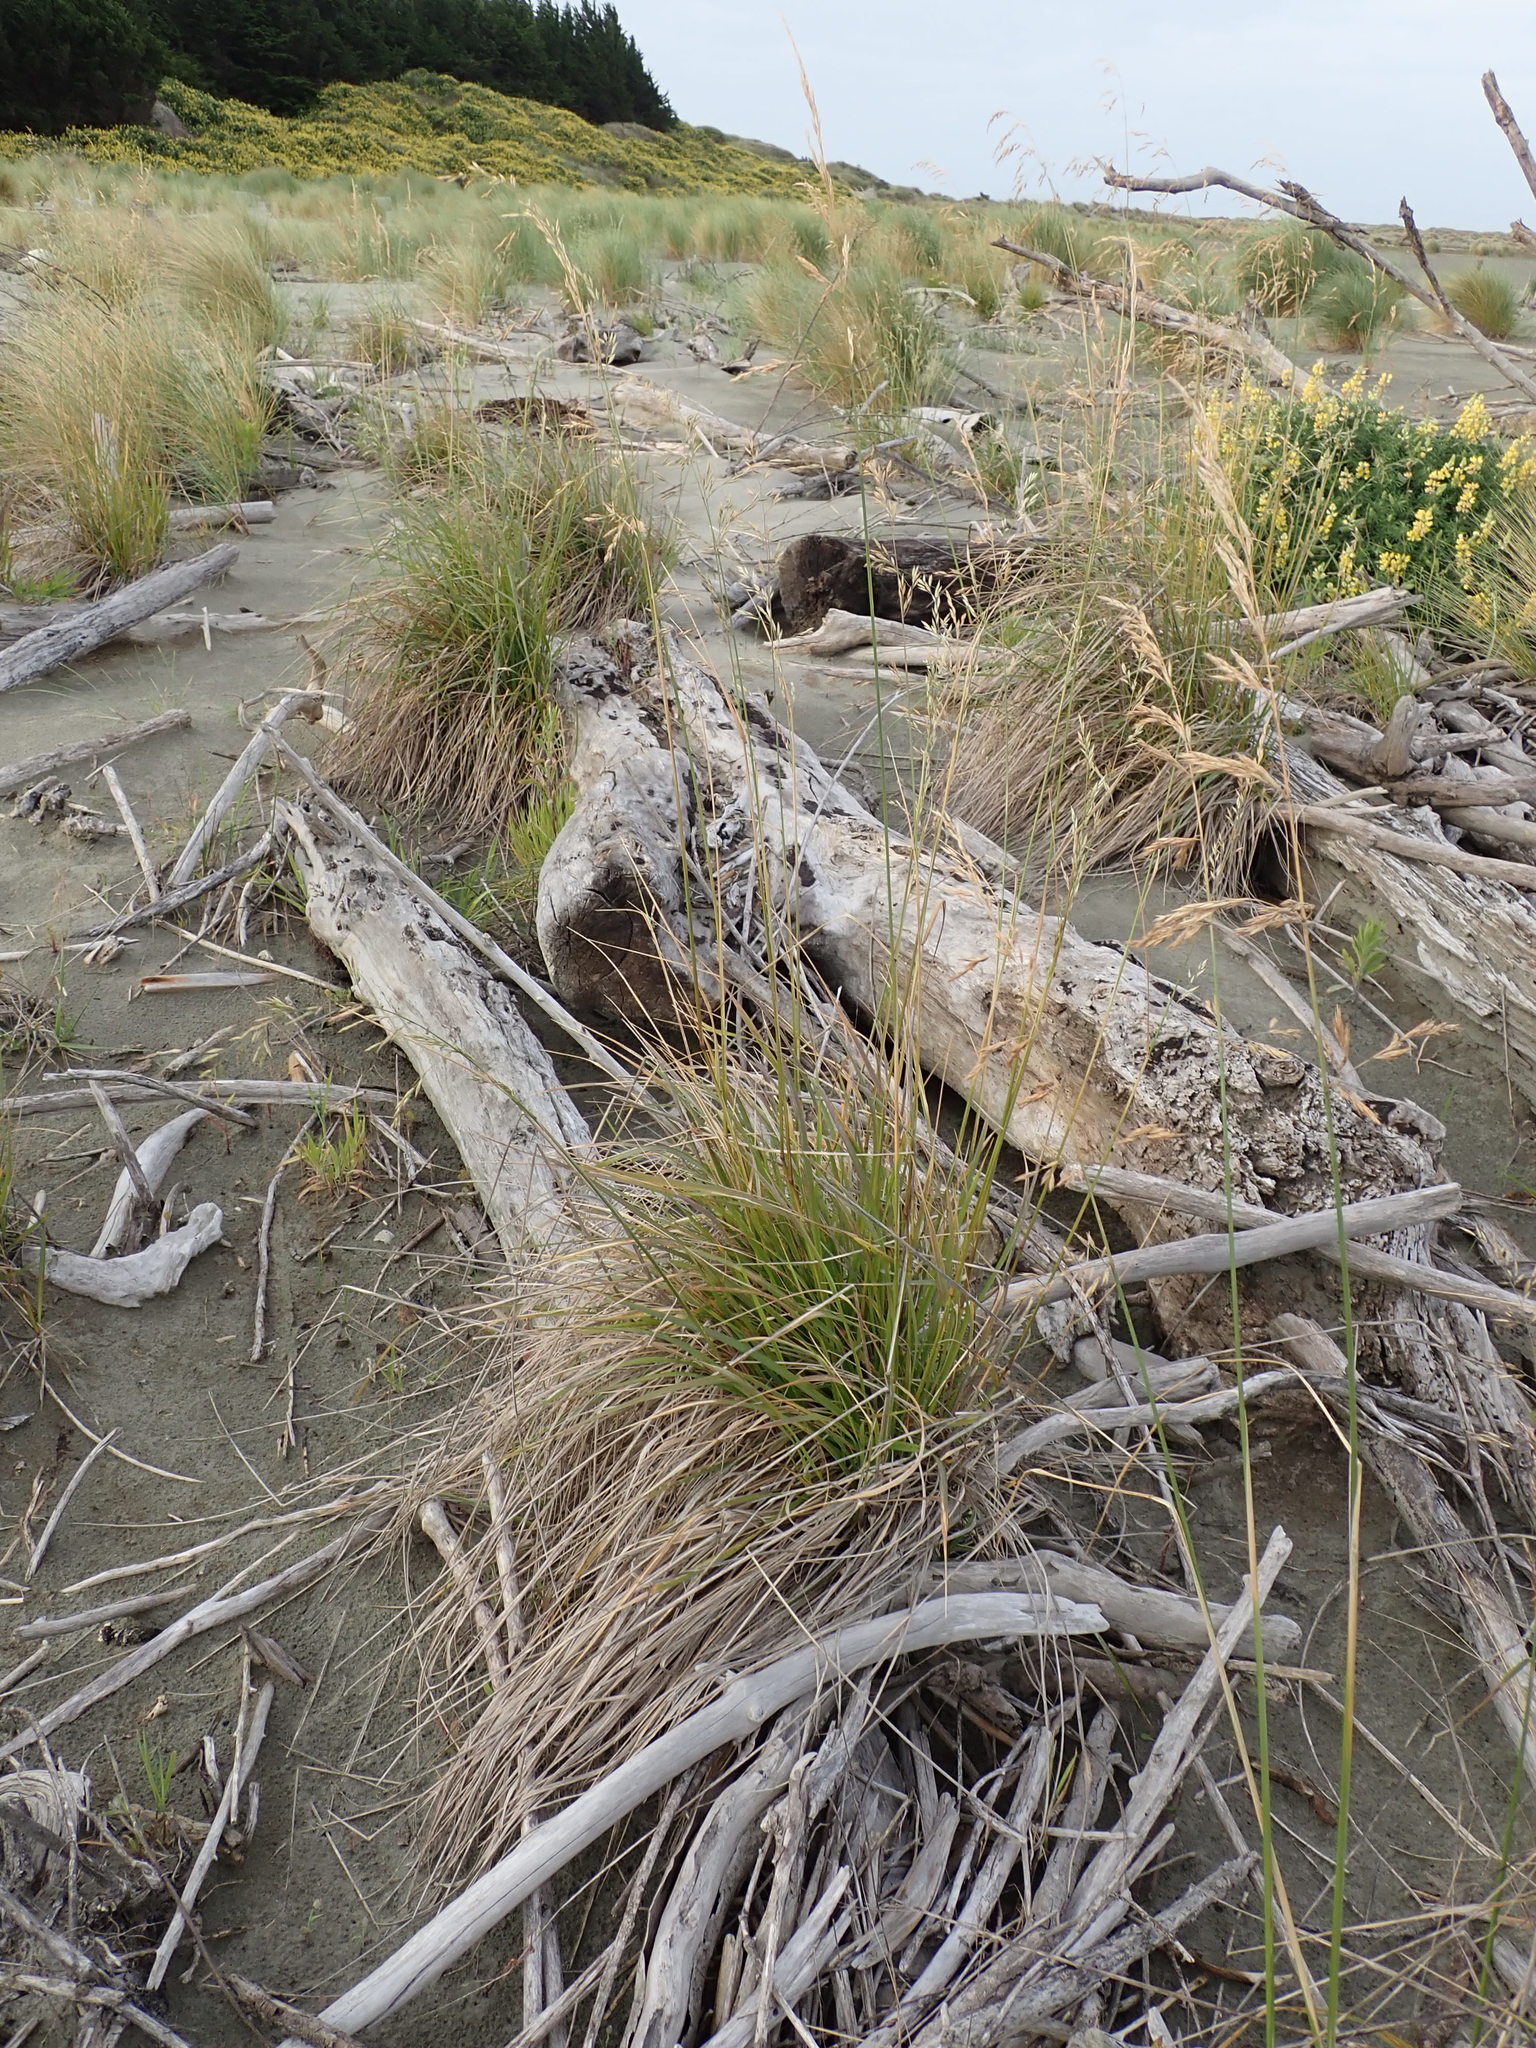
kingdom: Plantae
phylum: Tracheophyta
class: Liliopsida
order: Poales
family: Poaceae
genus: Lolium
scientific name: Lolium arundinaceum
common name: Reed fescue
